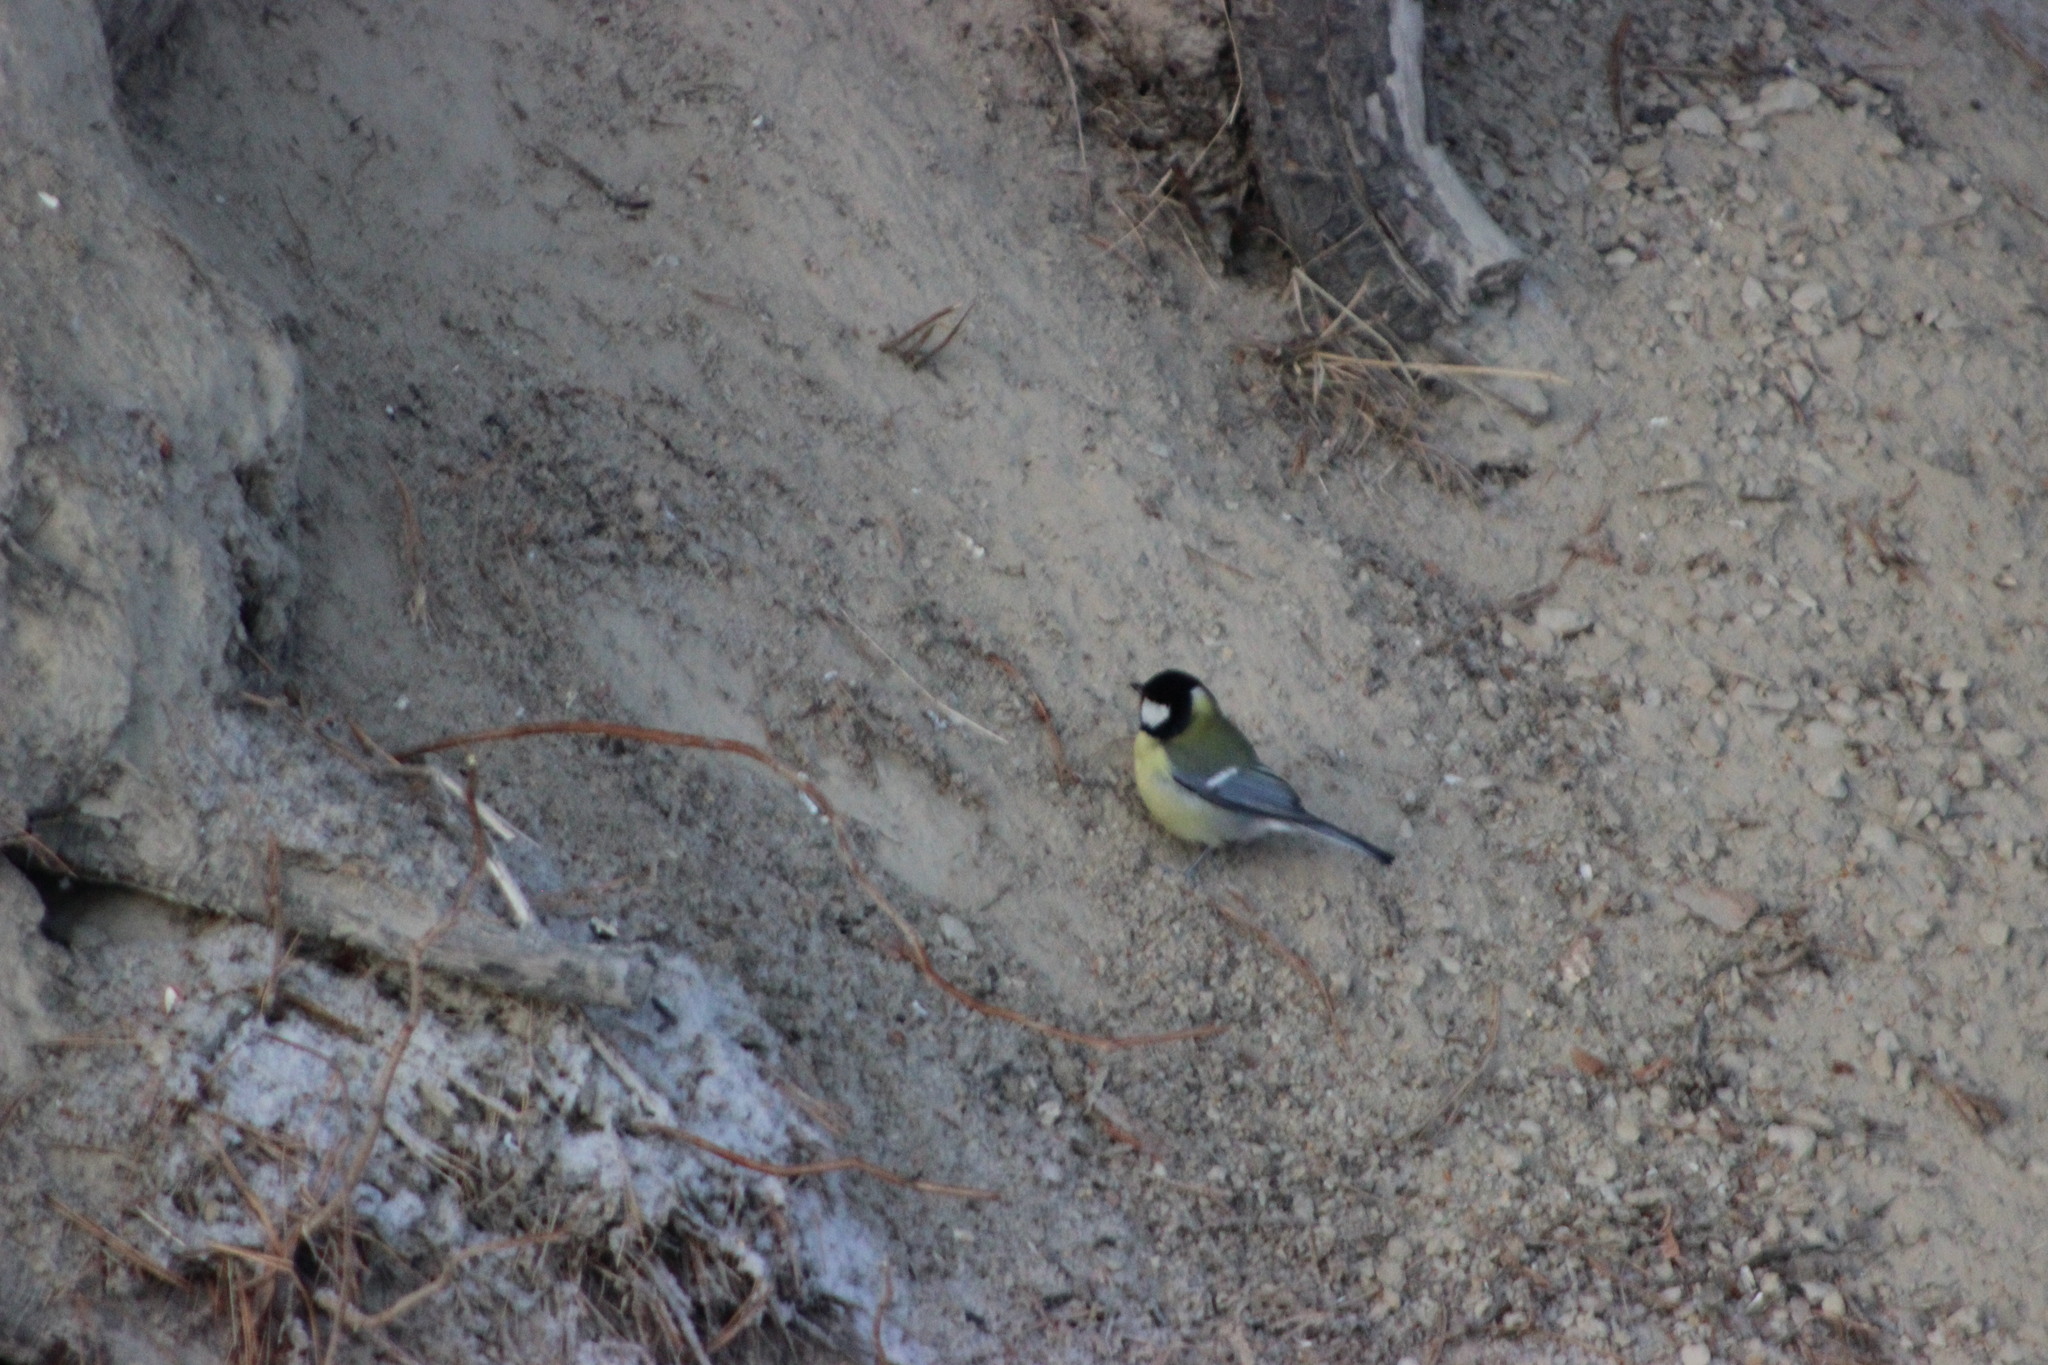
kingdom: Animalia
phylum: Chordata
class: Aves
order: Passeriformes
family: Paridae
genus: Parus
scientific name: Parus major
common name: Great tit
